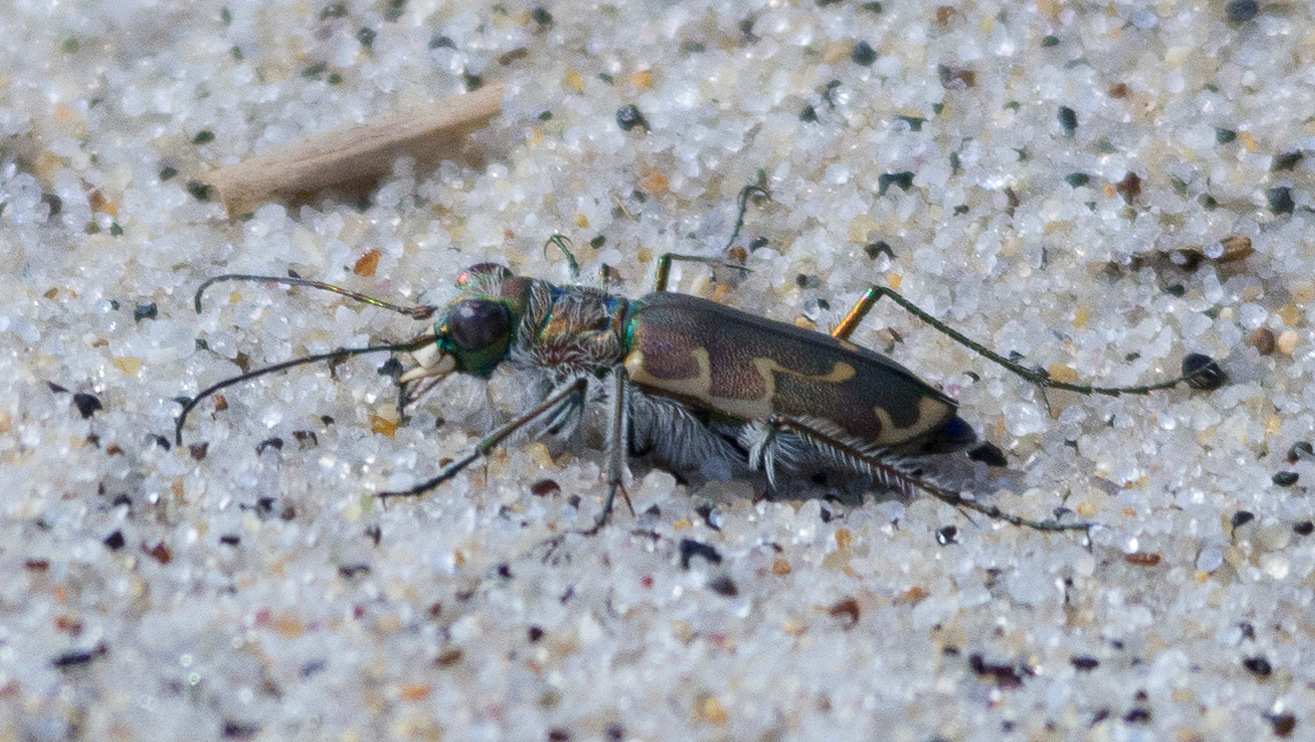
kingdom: Animalia
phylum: Arthropoda
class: Insecta
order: Coleoptera
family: Carabidae
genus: Cicindela
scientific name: Cicindela hirticollis
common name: Hairy-necked tiger beetle
